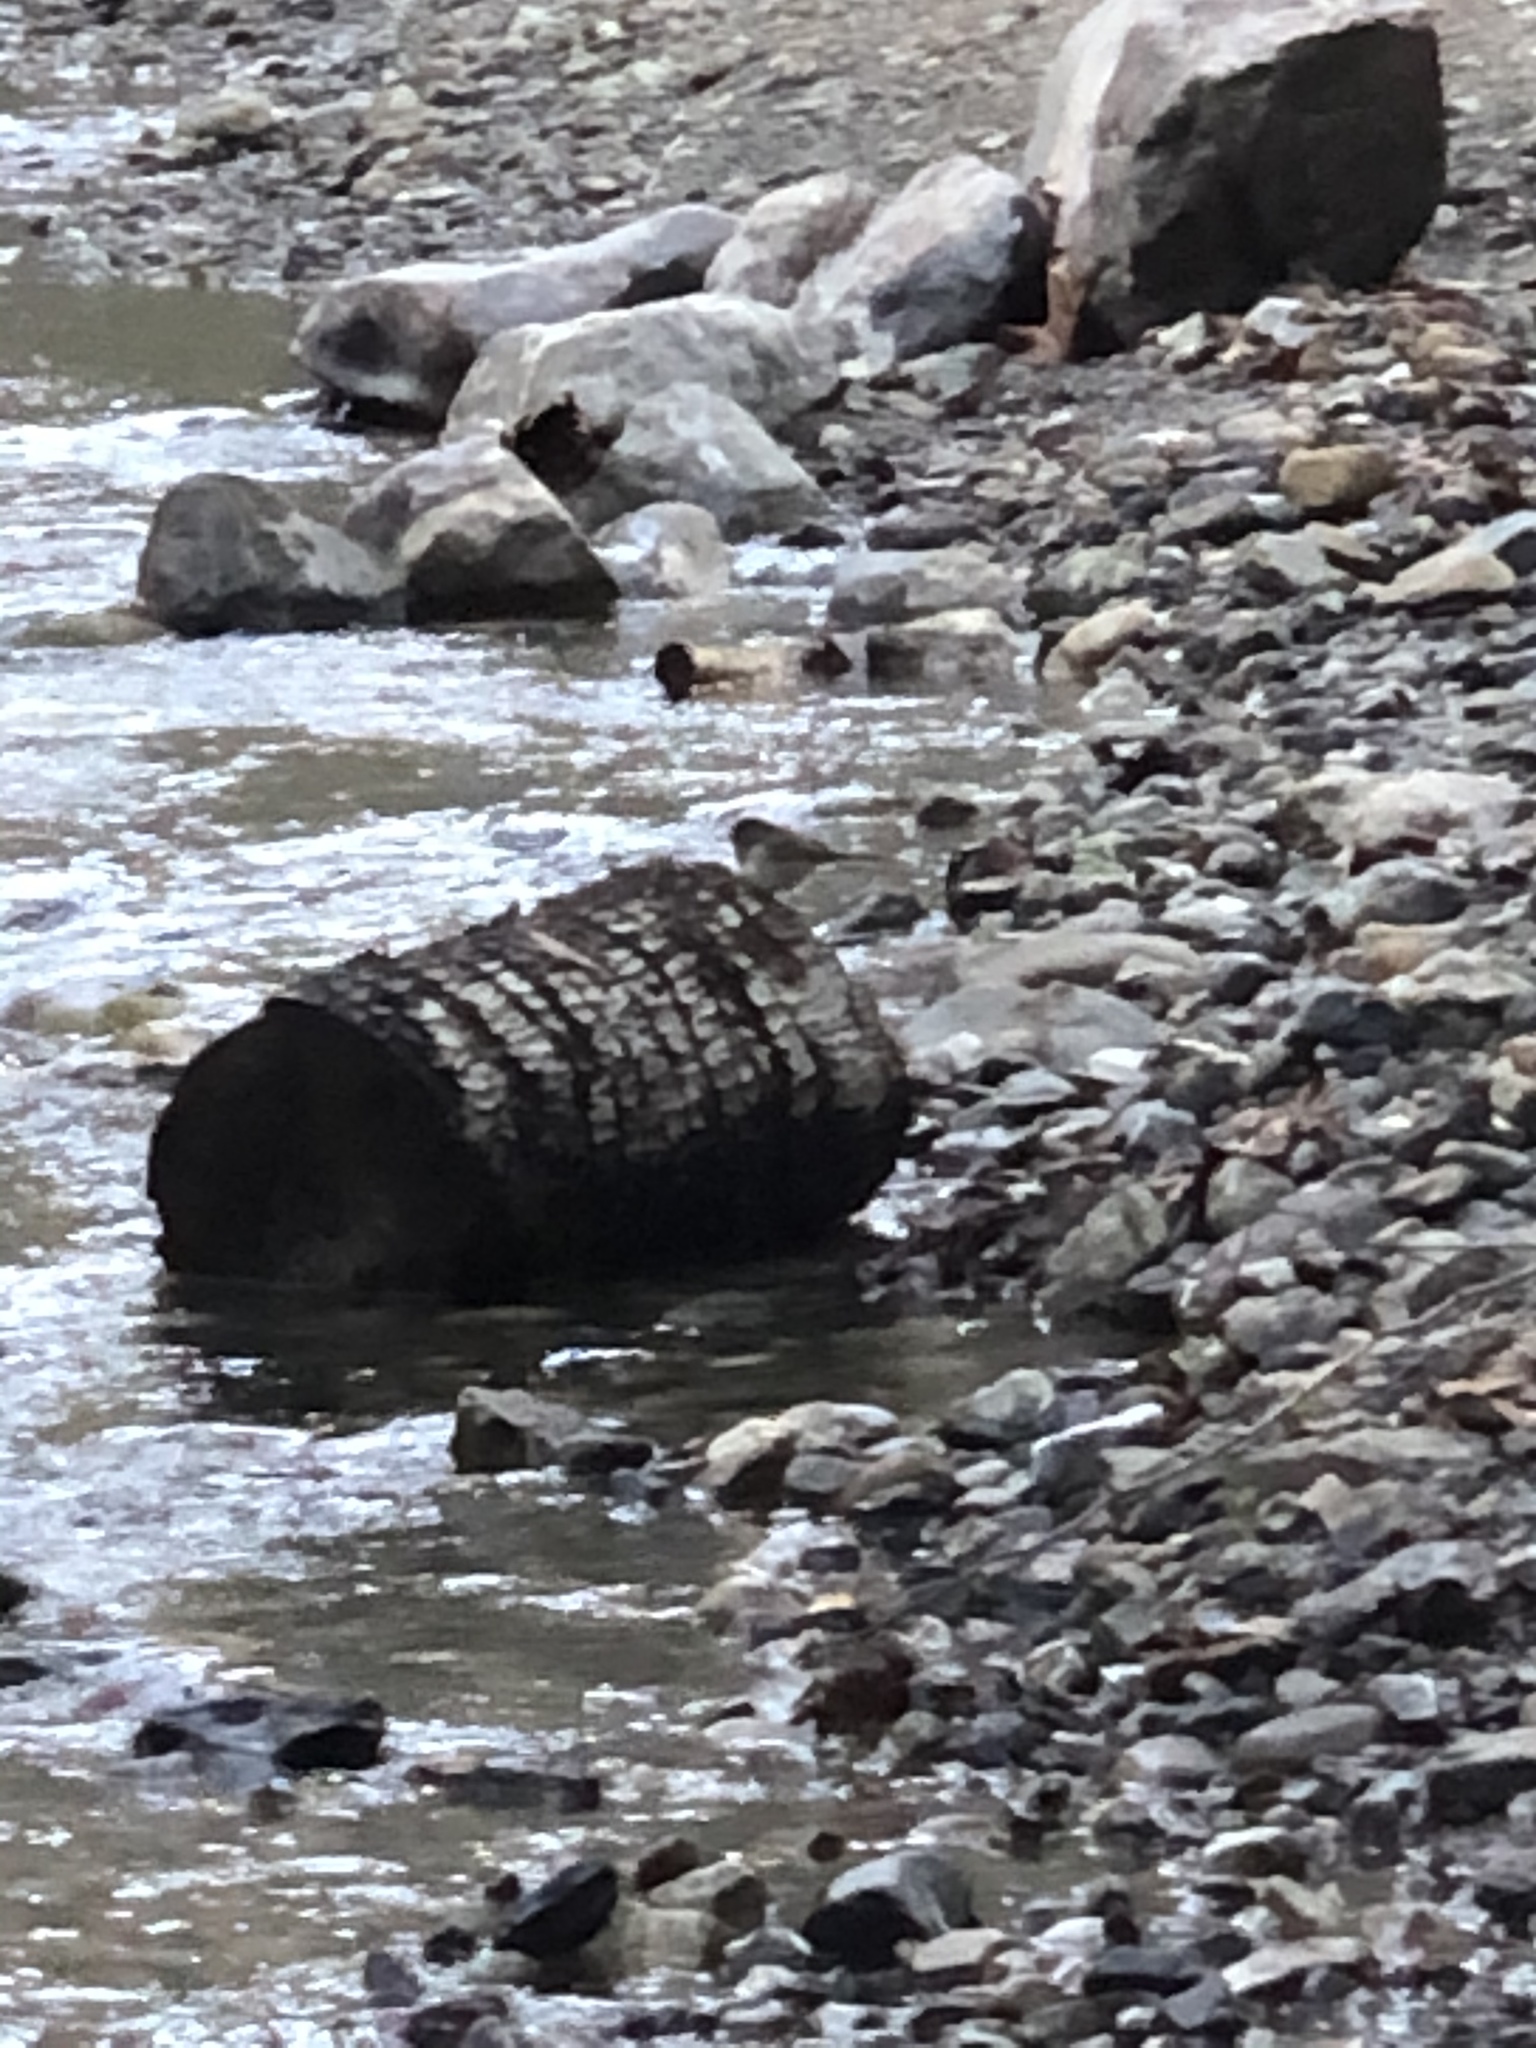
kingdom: Animalia
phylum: Chordata
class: Aves
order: Passeriformes
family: Passerellidae
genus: Junco
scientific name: Junco hyemalis
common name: Dark-eyed junco
